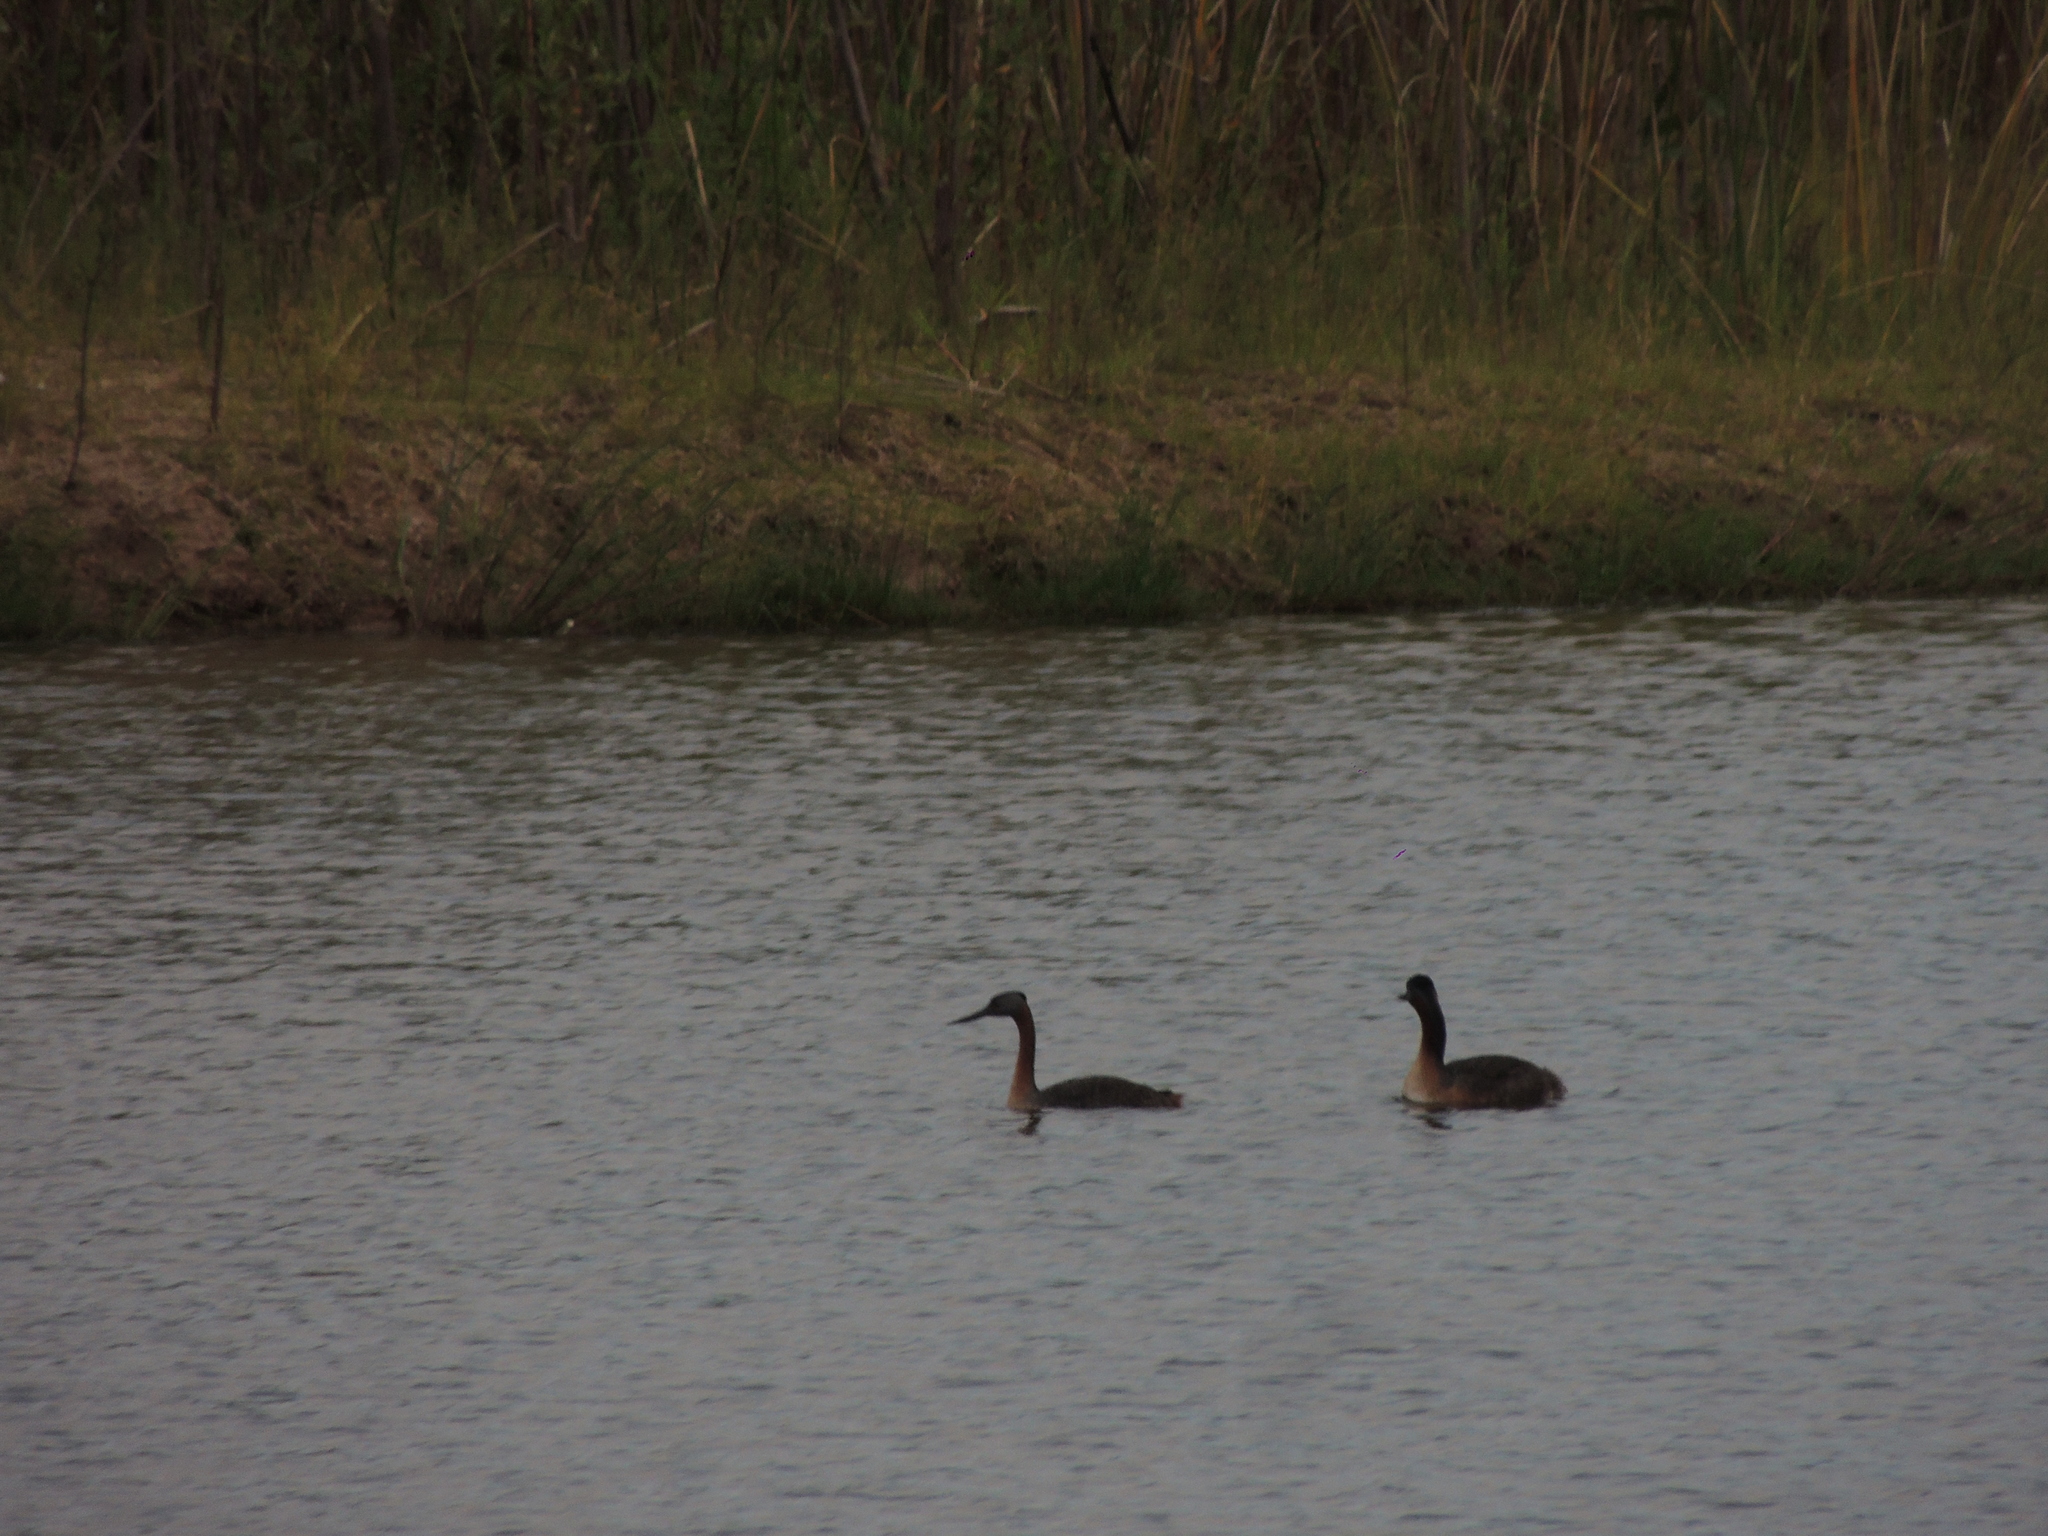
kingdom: Animalia
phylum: Chordata
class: Aves
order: Podicipediformes
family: Podicipedidae
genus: Podiceps
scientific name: Podiceps major
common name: Great grebe
